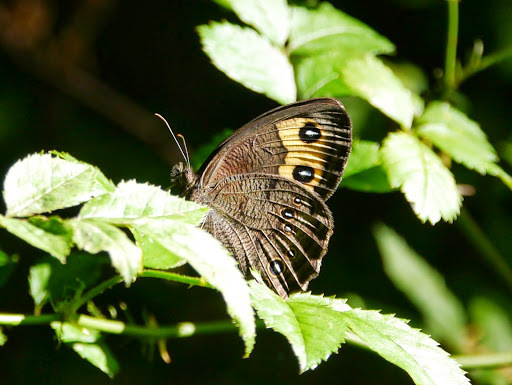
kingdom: Animalia
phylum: Arthropoda
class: Insecta
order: Lepidoptera
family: Nymphalidae
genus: Cercyonis
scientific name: Cercyonis pegala
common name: Common wood-nymph
